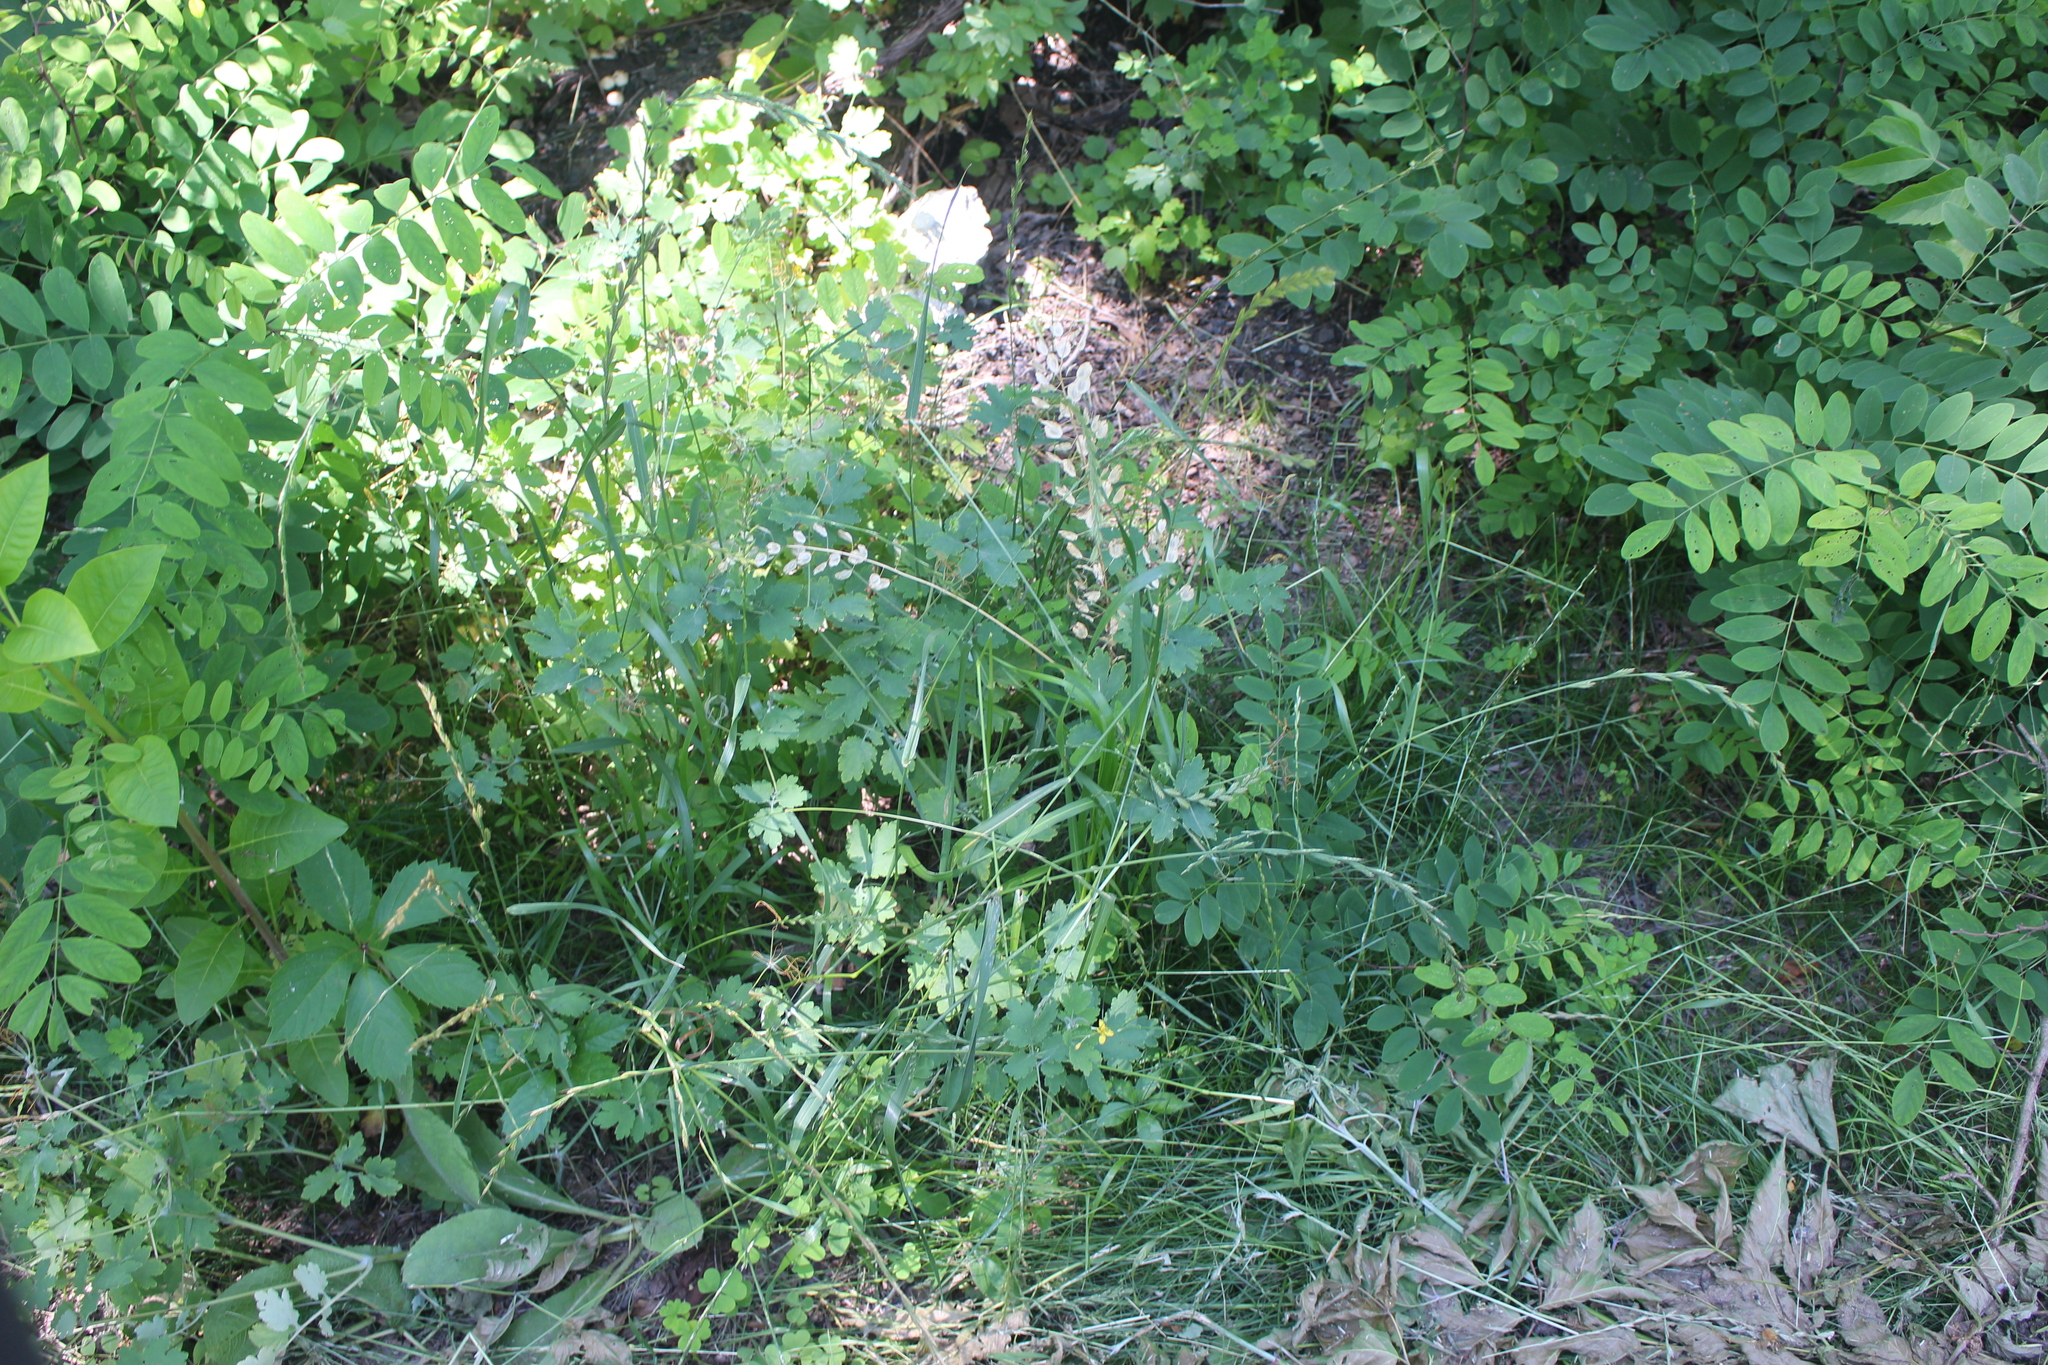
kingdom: Plantae
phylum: Tracheophyta
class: Magnoliopsida
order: Brassicales
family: Brassicaceae
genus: Thlaspi
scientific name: Thlaspi arvense
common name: Field pennycress
